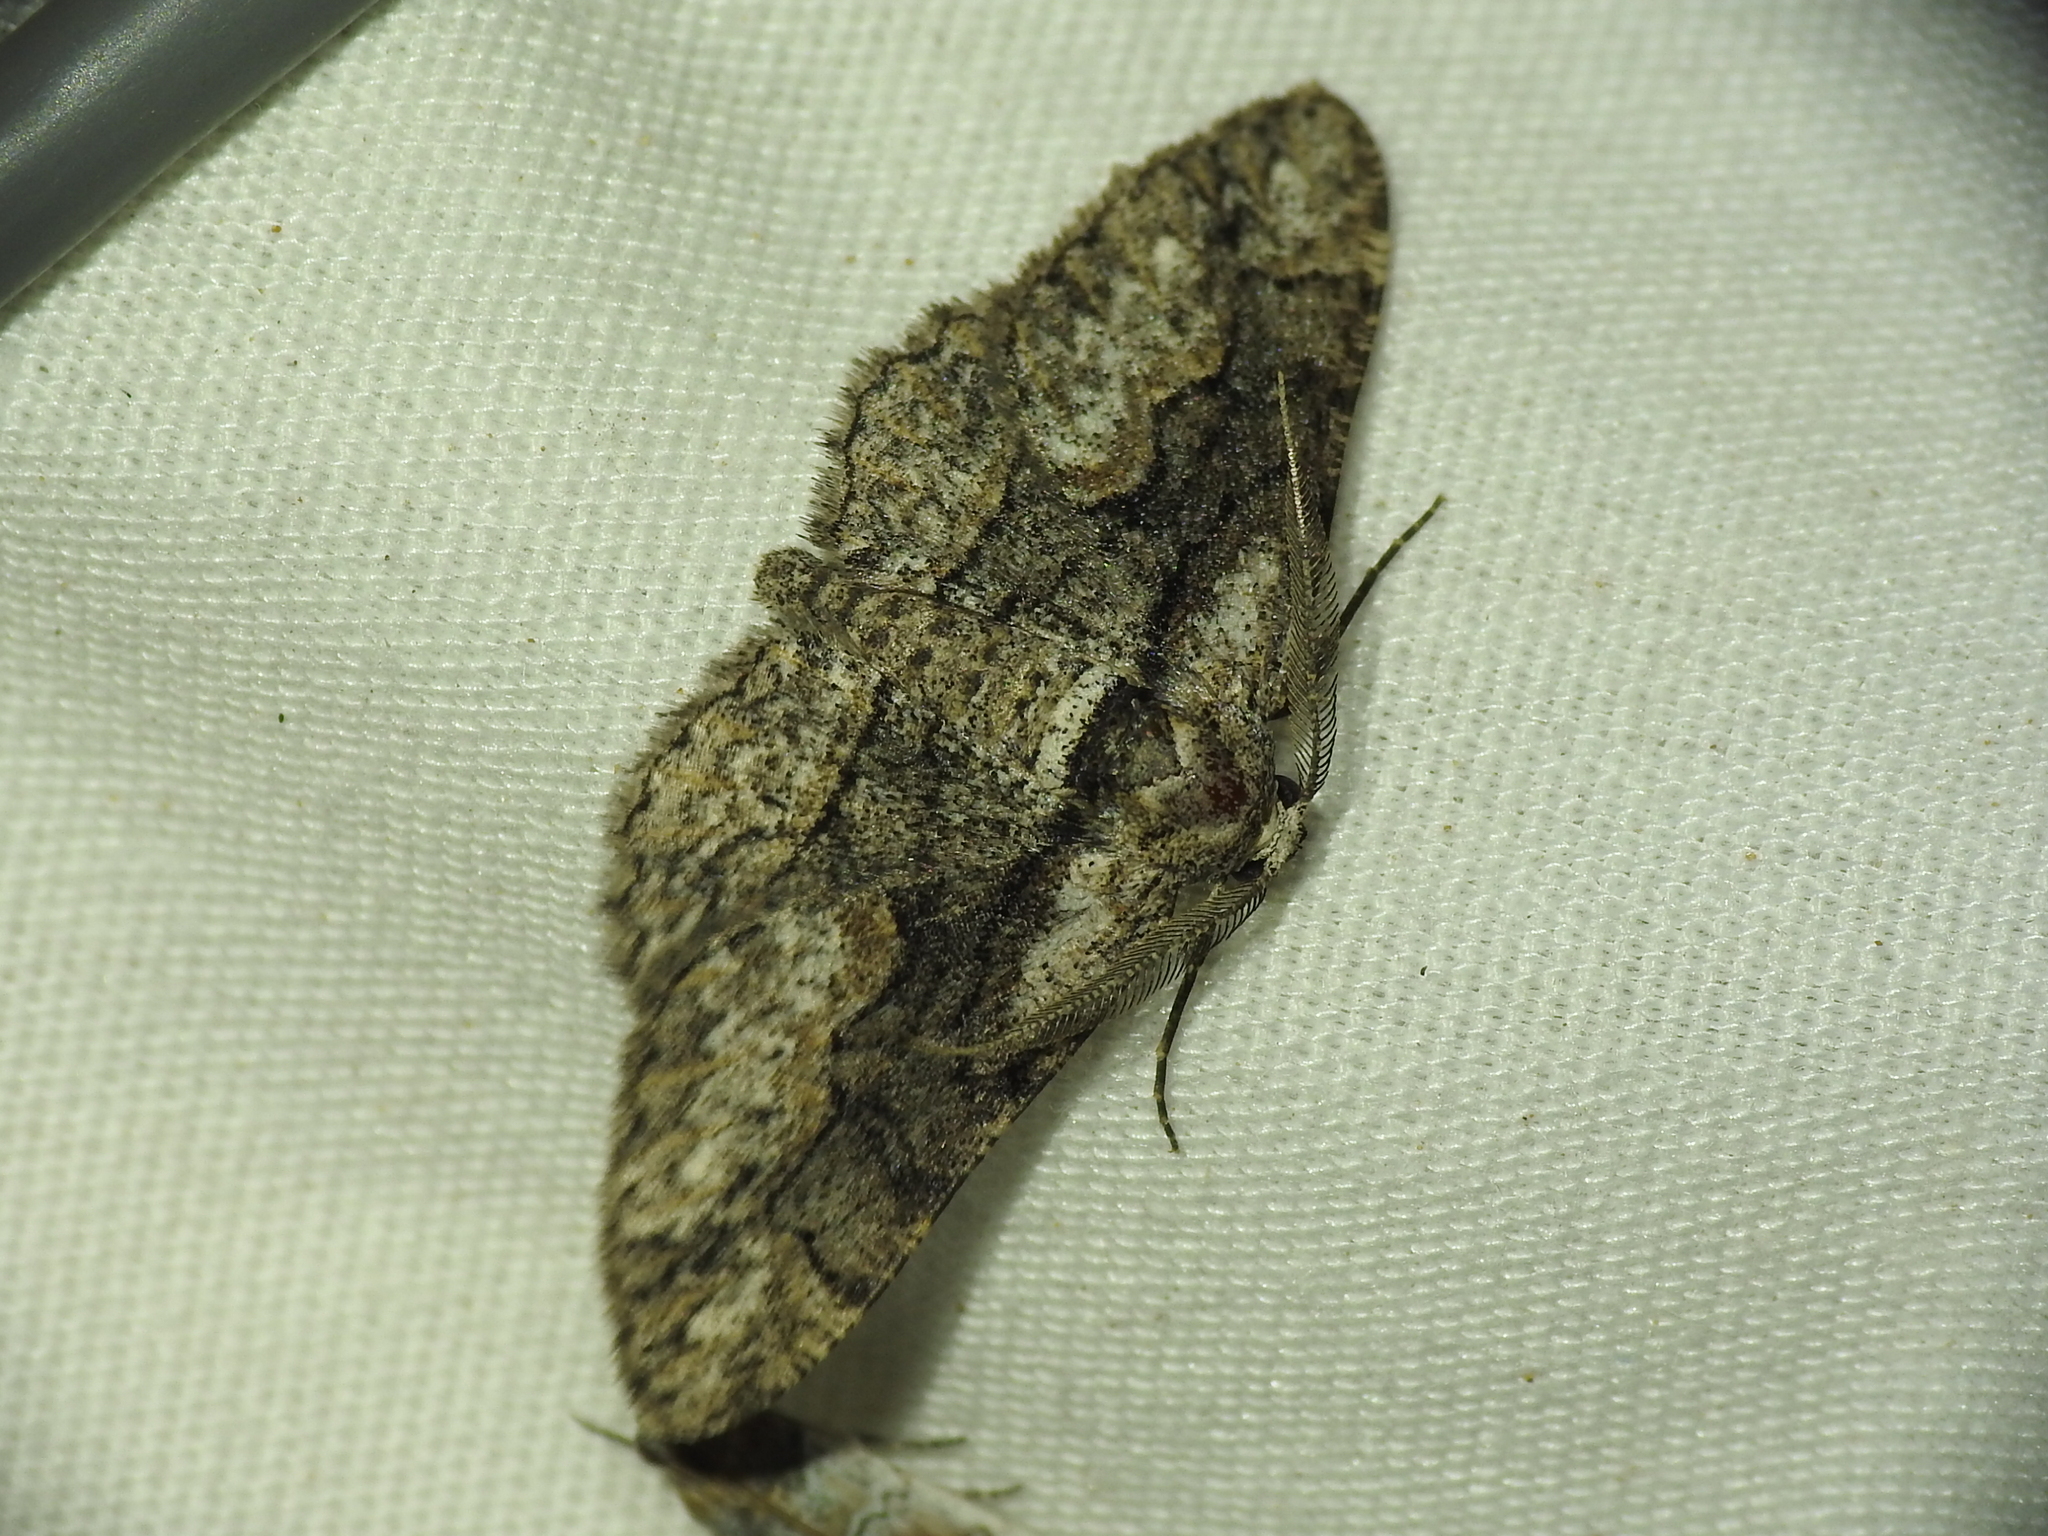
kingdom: Animalia
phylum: Arthropoda
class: Insecta
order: Lepidoptera
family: Geometridae
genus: Iridopsis
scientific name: Iridopsis dataria
